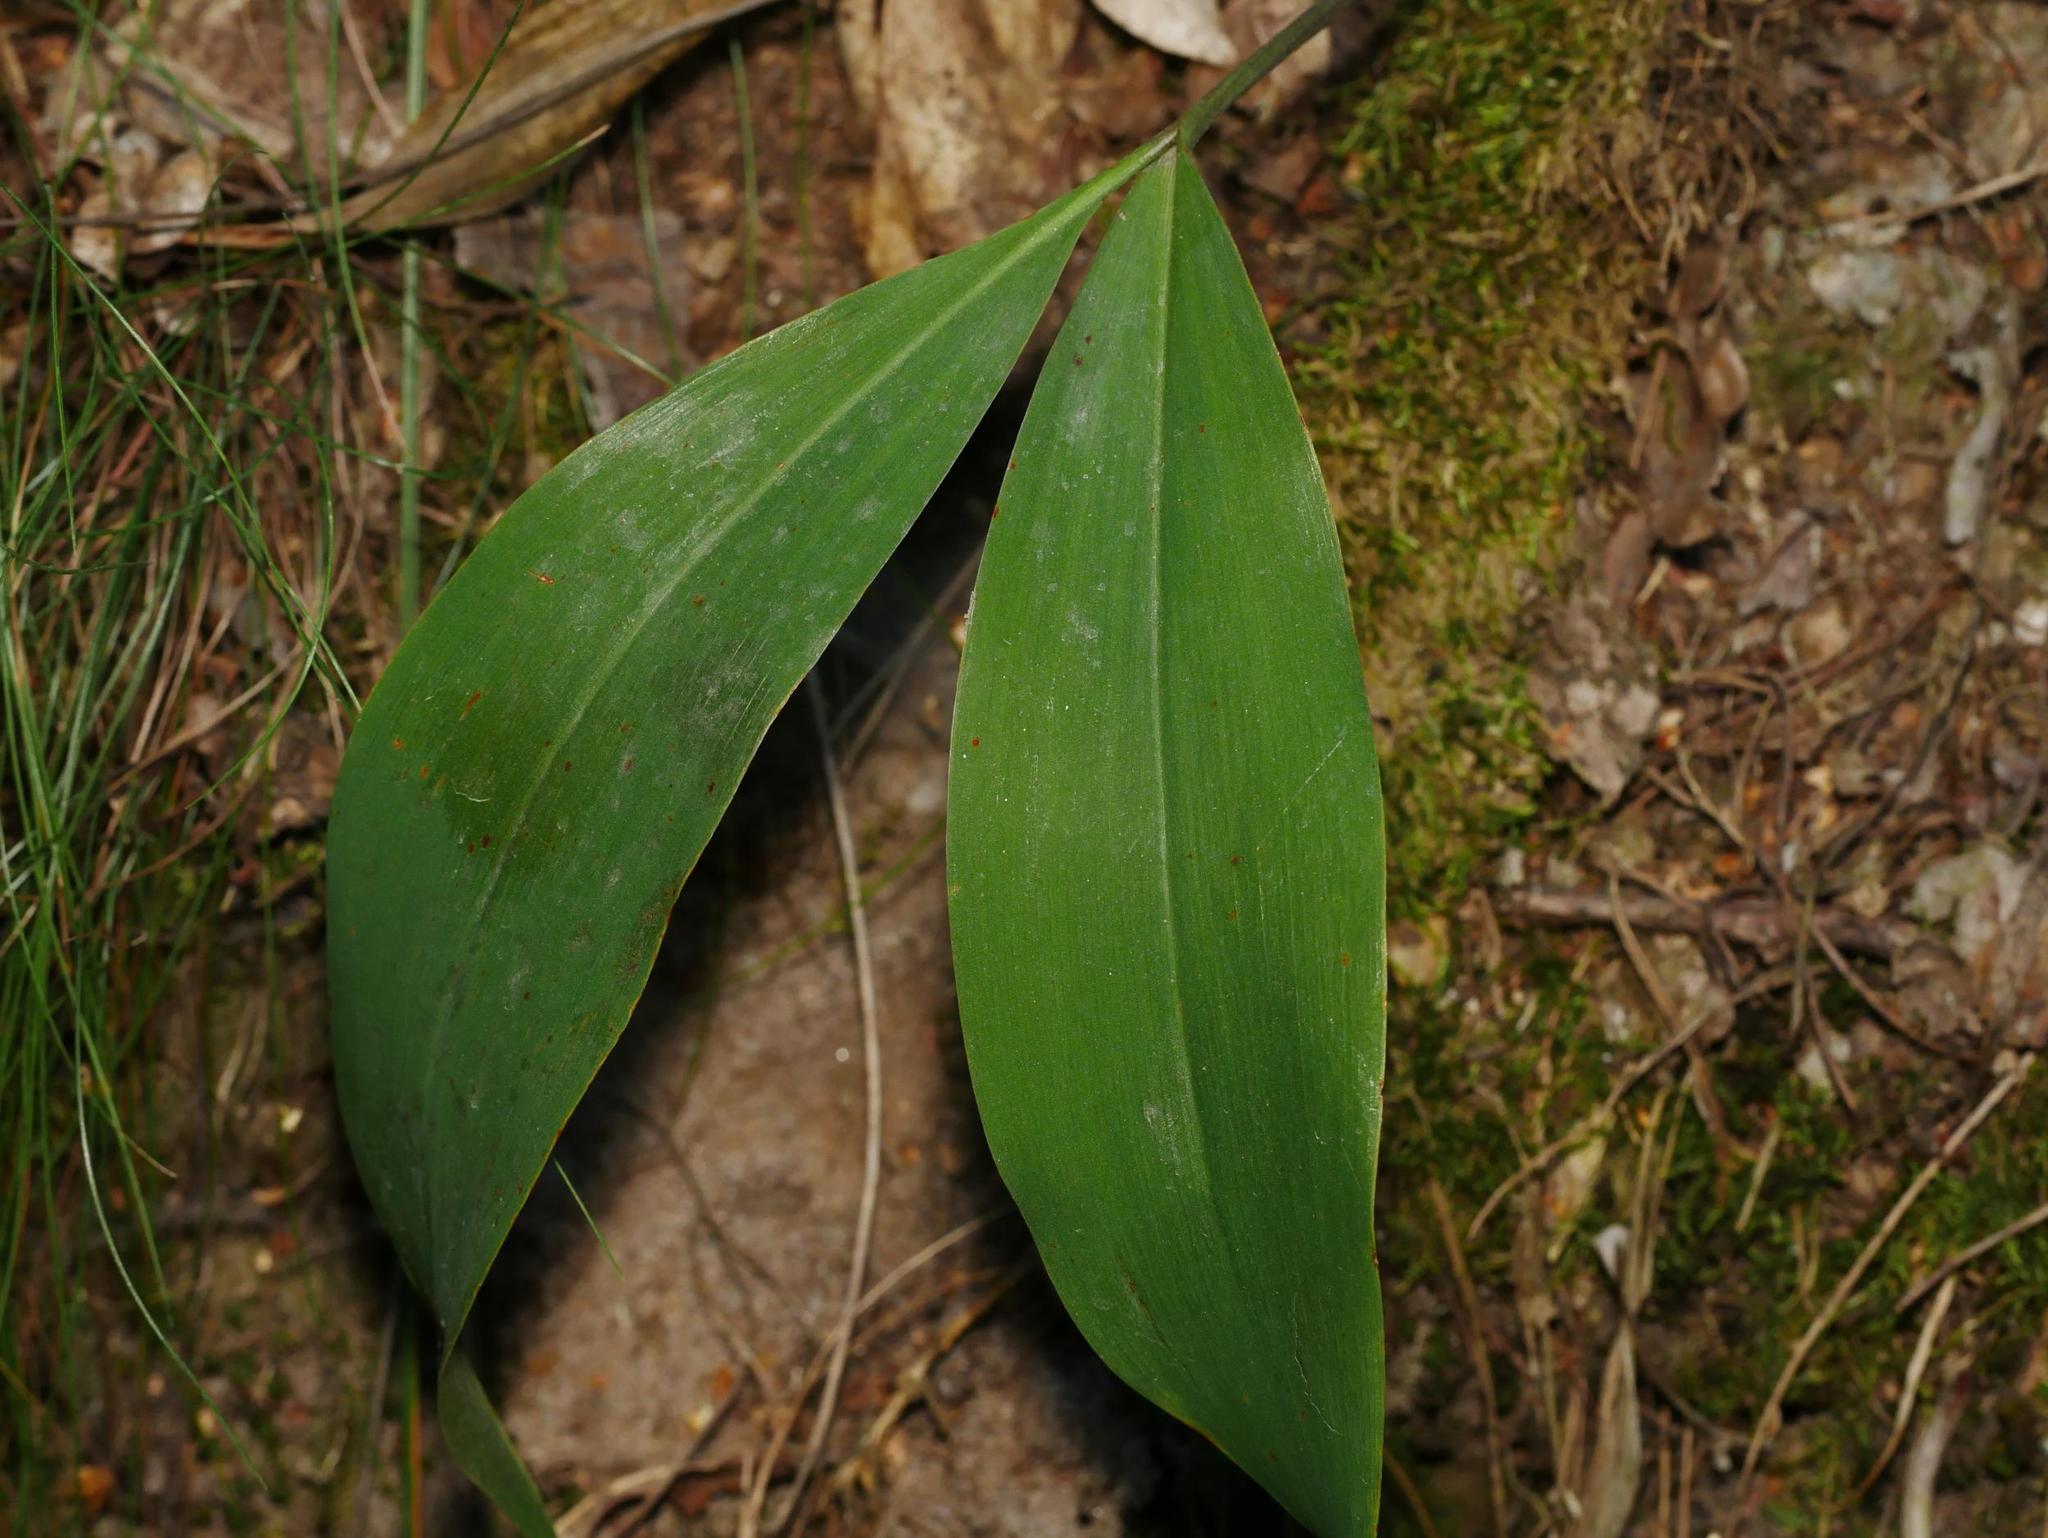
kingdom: Plantae
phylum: Tracheophyta
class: Liliopsida
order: Asparagales
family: Asparagaceae
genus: Convallaria
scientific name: Convallaria majalis
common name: Lily-of-the-valley
